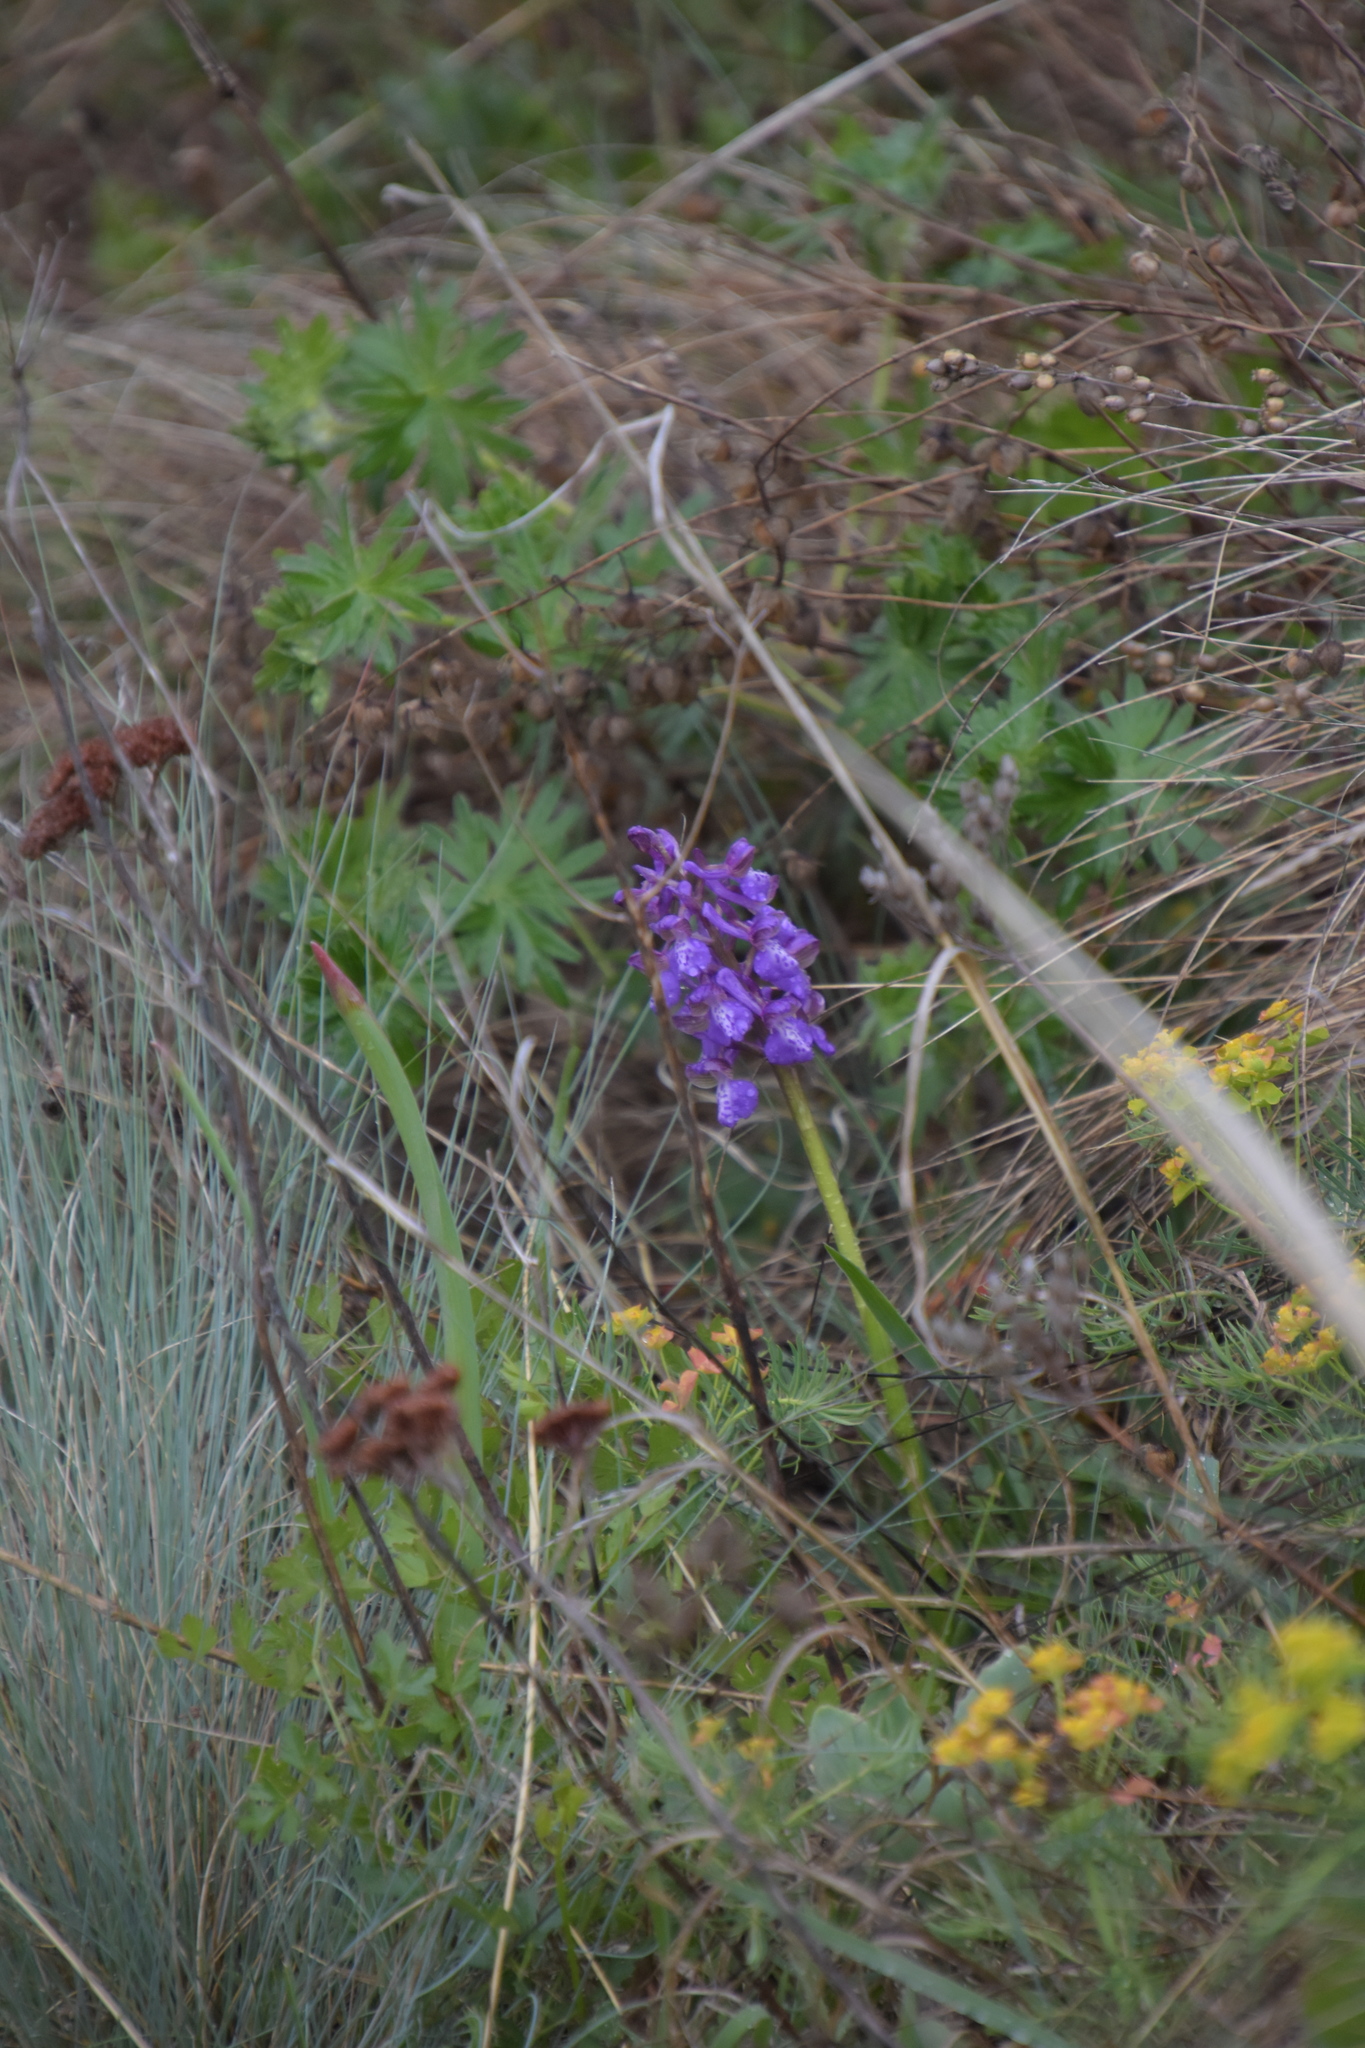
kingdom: Plantae
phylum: Tracheophyta
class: Liliopsida
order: Asparagales
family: Orchidaceae
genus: Anacamptis
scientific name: Anacamptis morio
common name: Green-winged orchid
